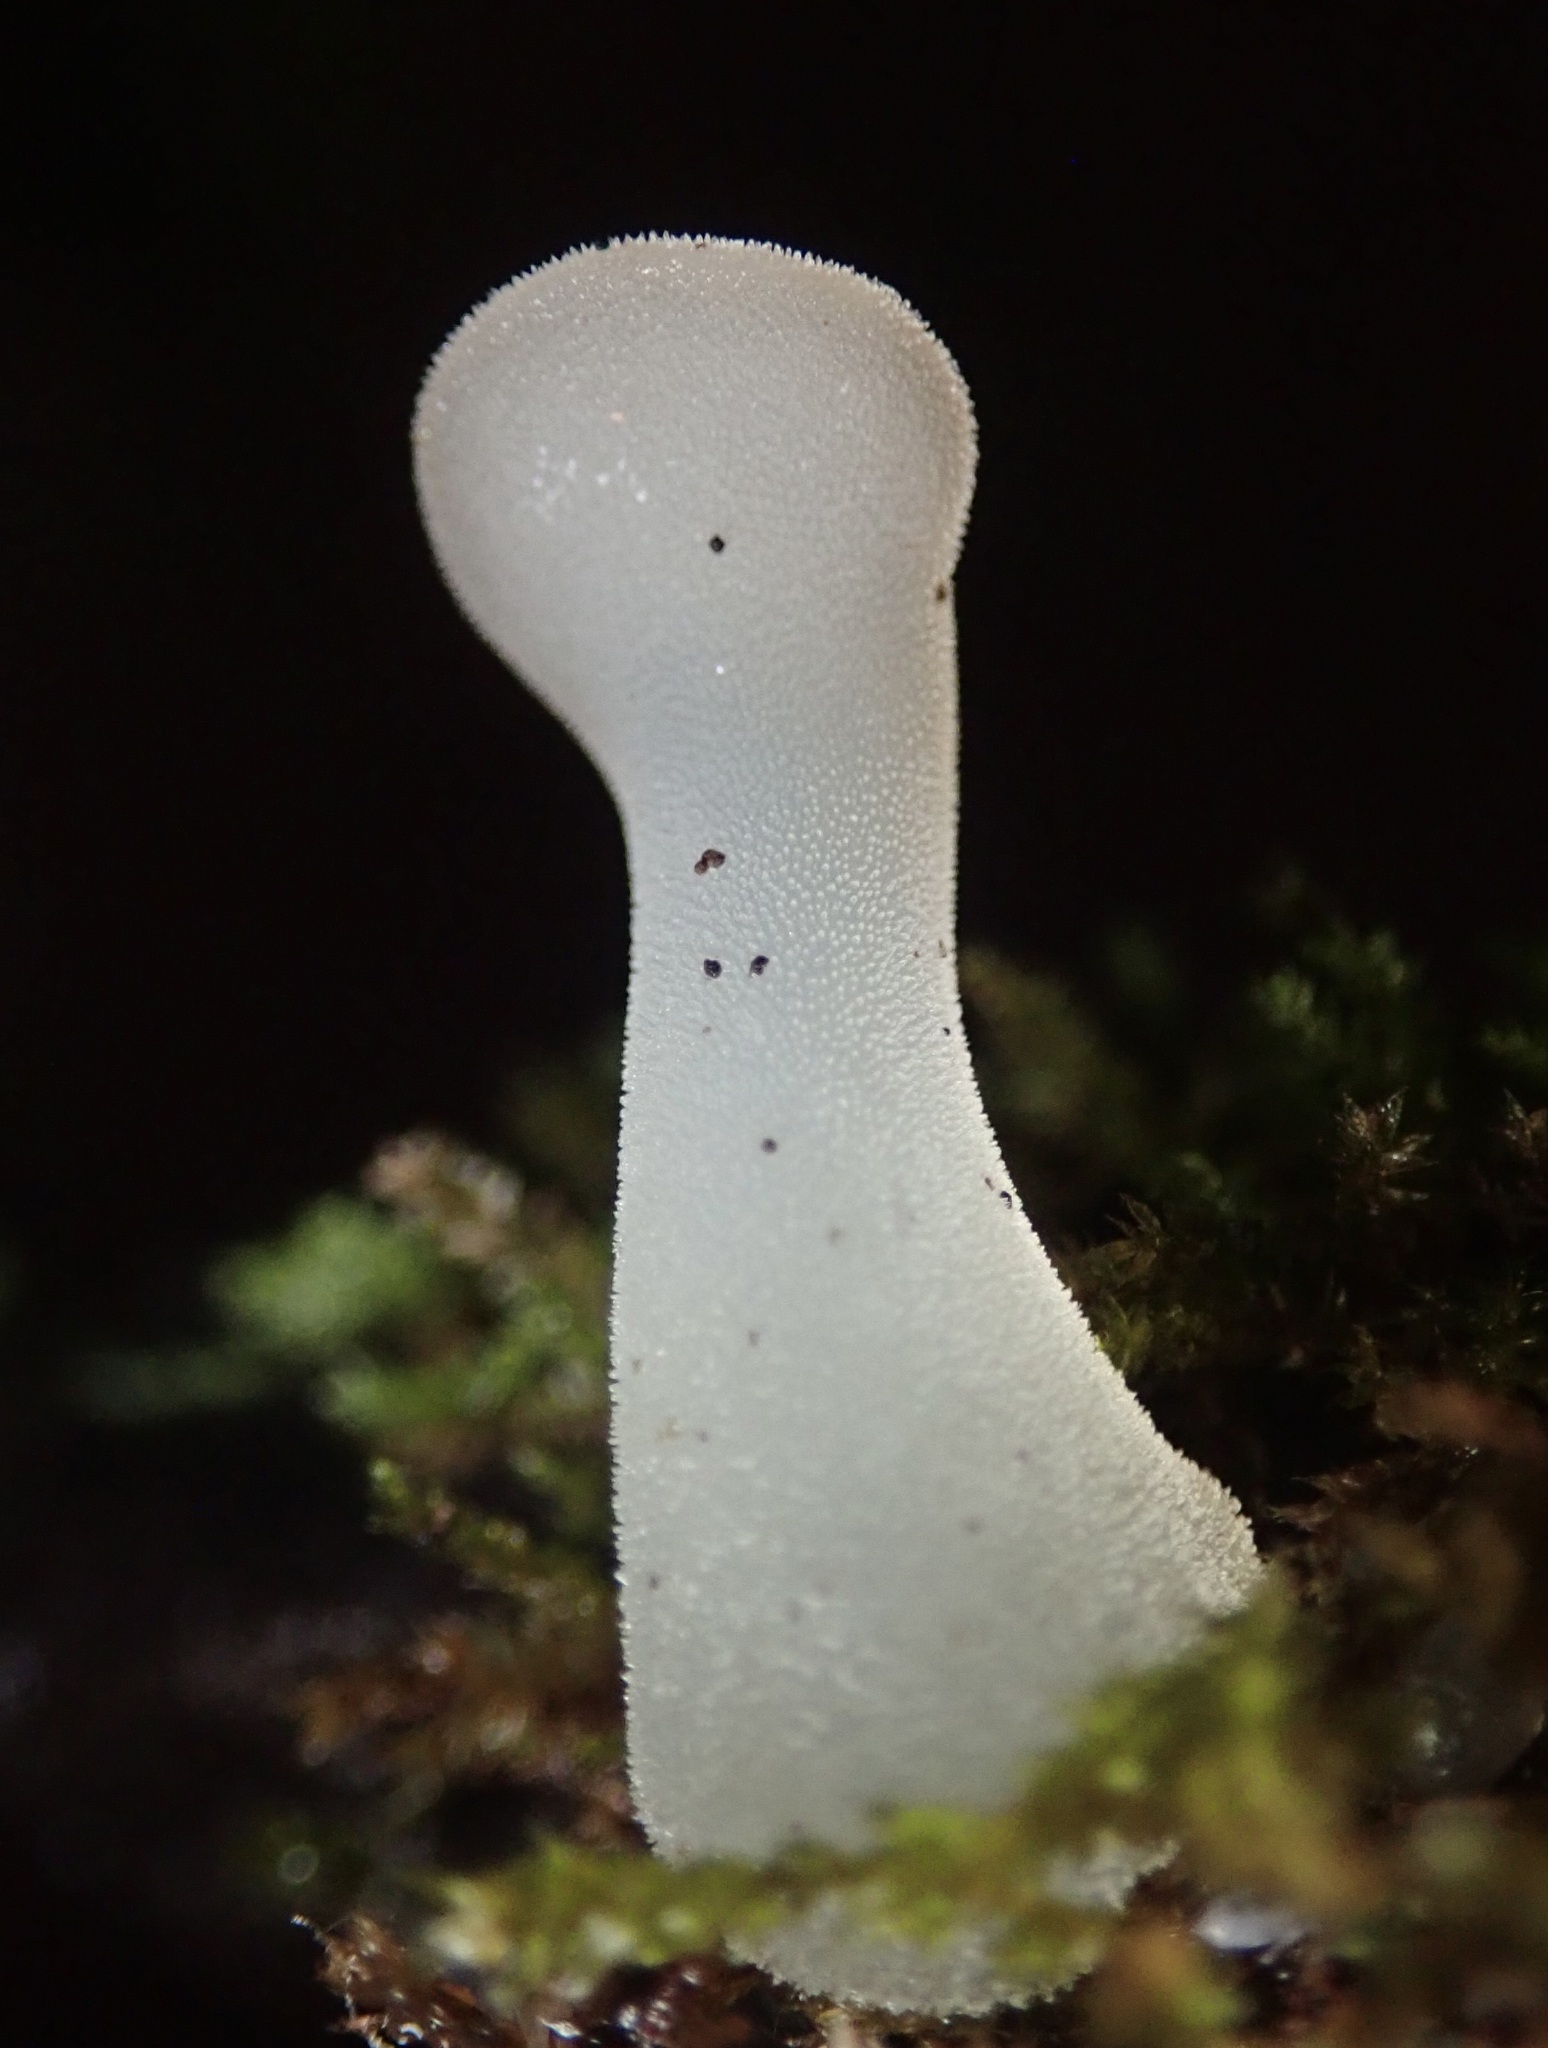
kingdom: Fungi
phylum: Basidiomycota
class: Agaricomycetes
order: Auriculariales
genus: Pseudohydnum
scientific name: Pseudohydnum gelatinosum
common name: Jelly tongue
